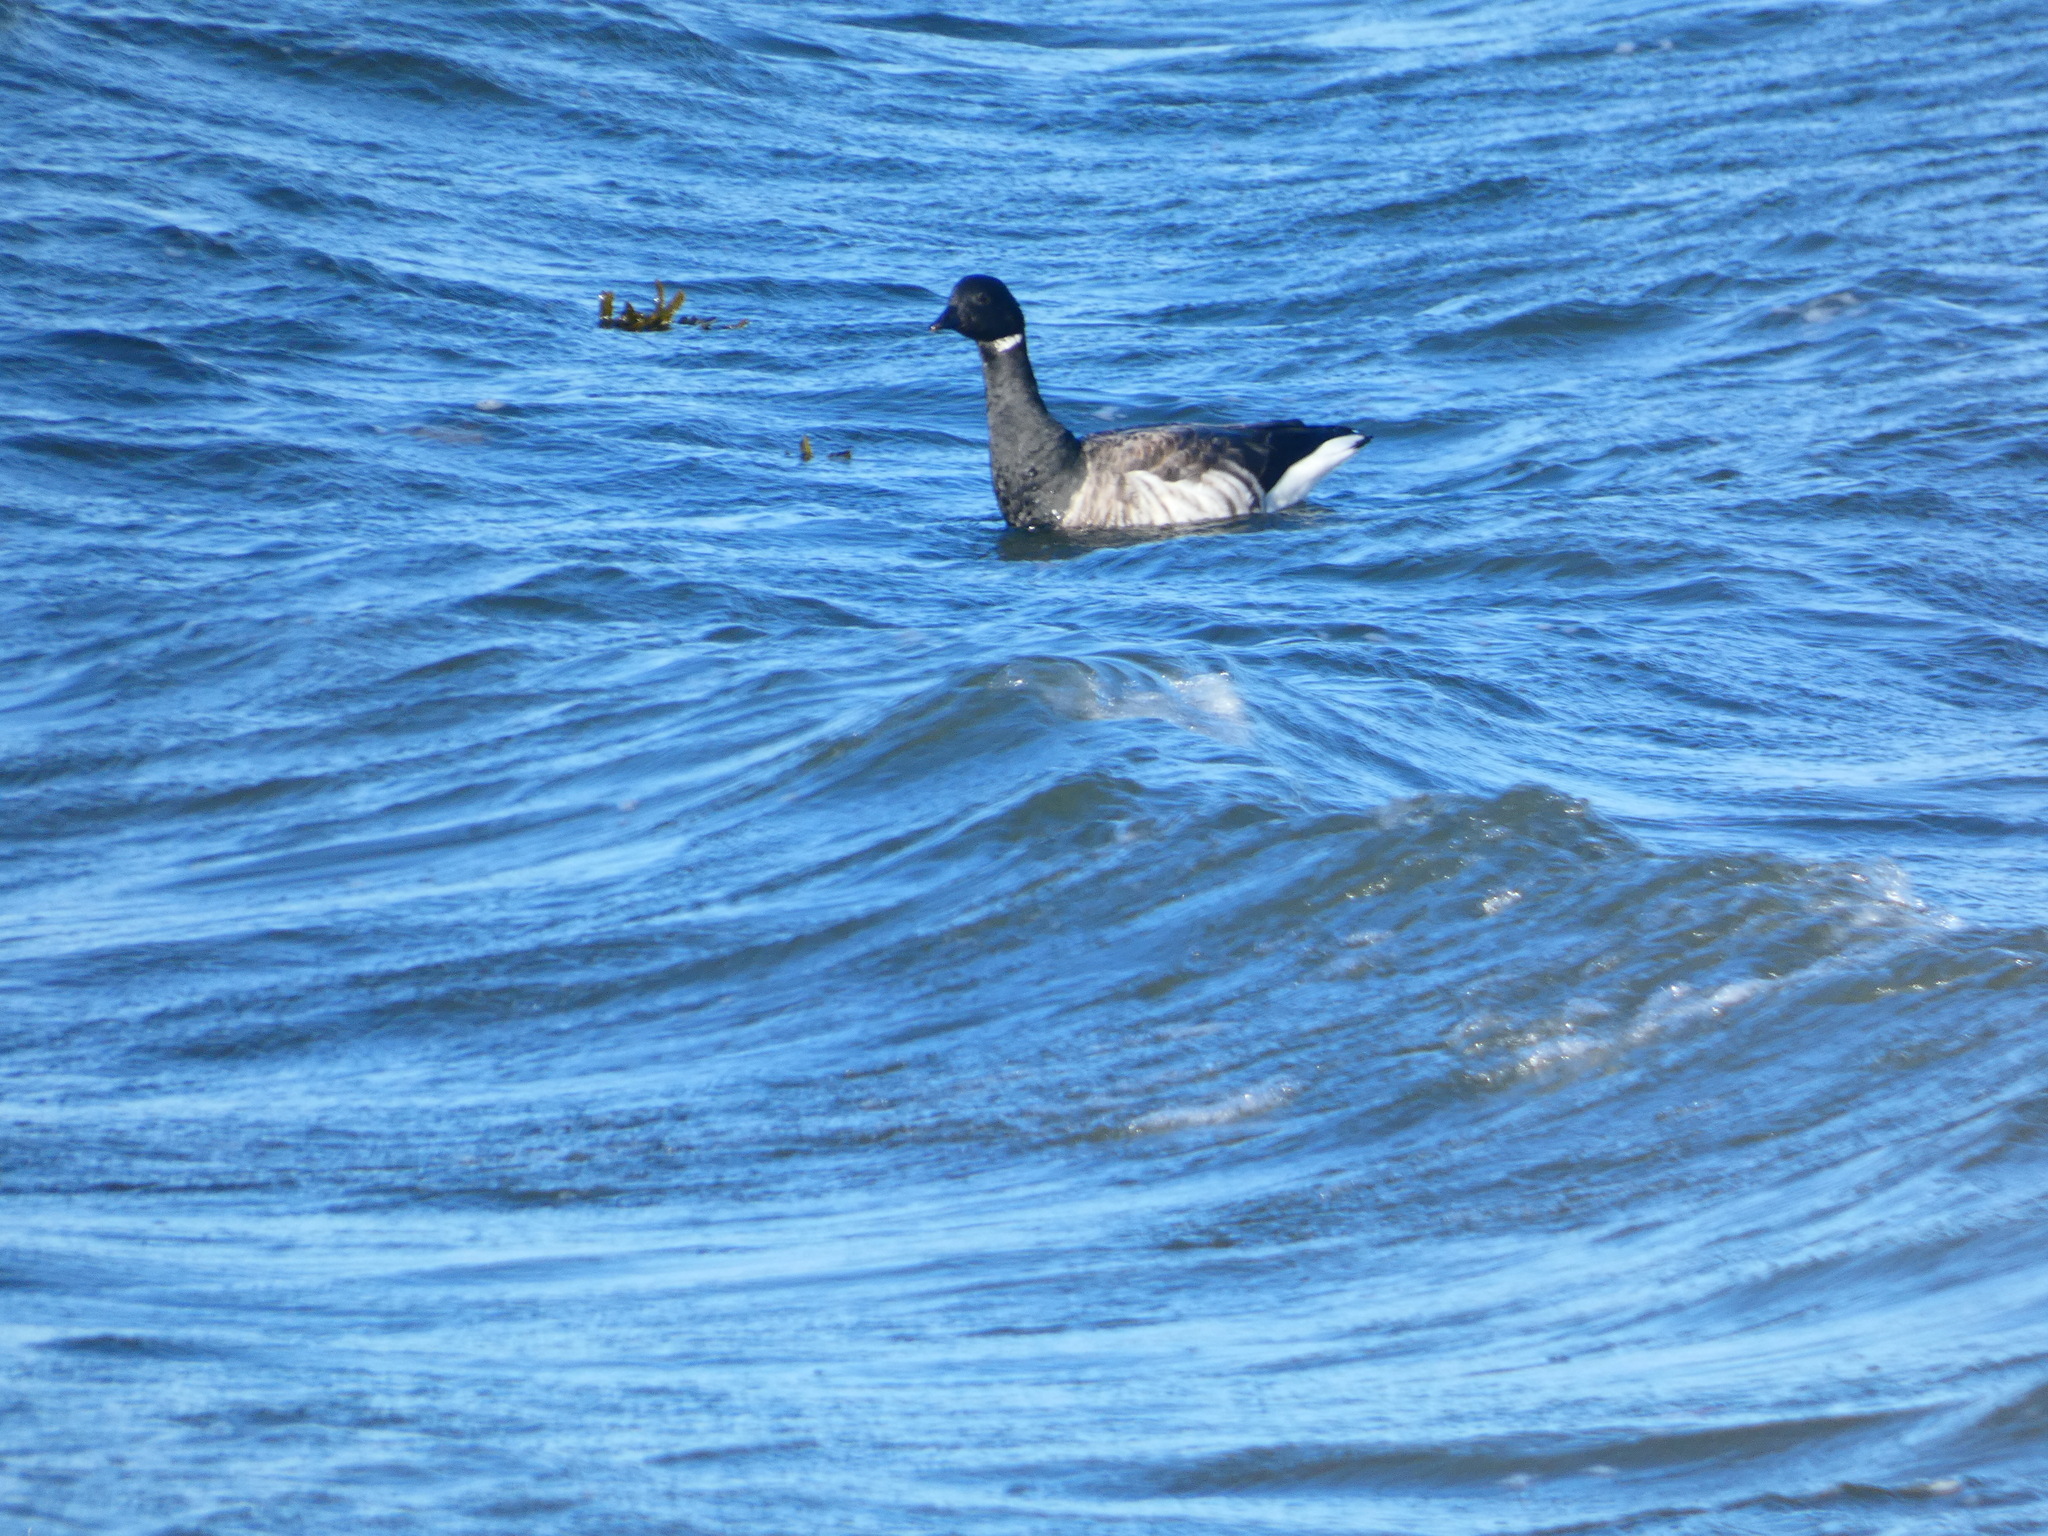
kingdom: Animalia
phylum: Chordata
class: Aves
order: Anseriformes
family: Anatidae
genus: Branta
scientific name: Branta bernicla
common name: Brant goose
